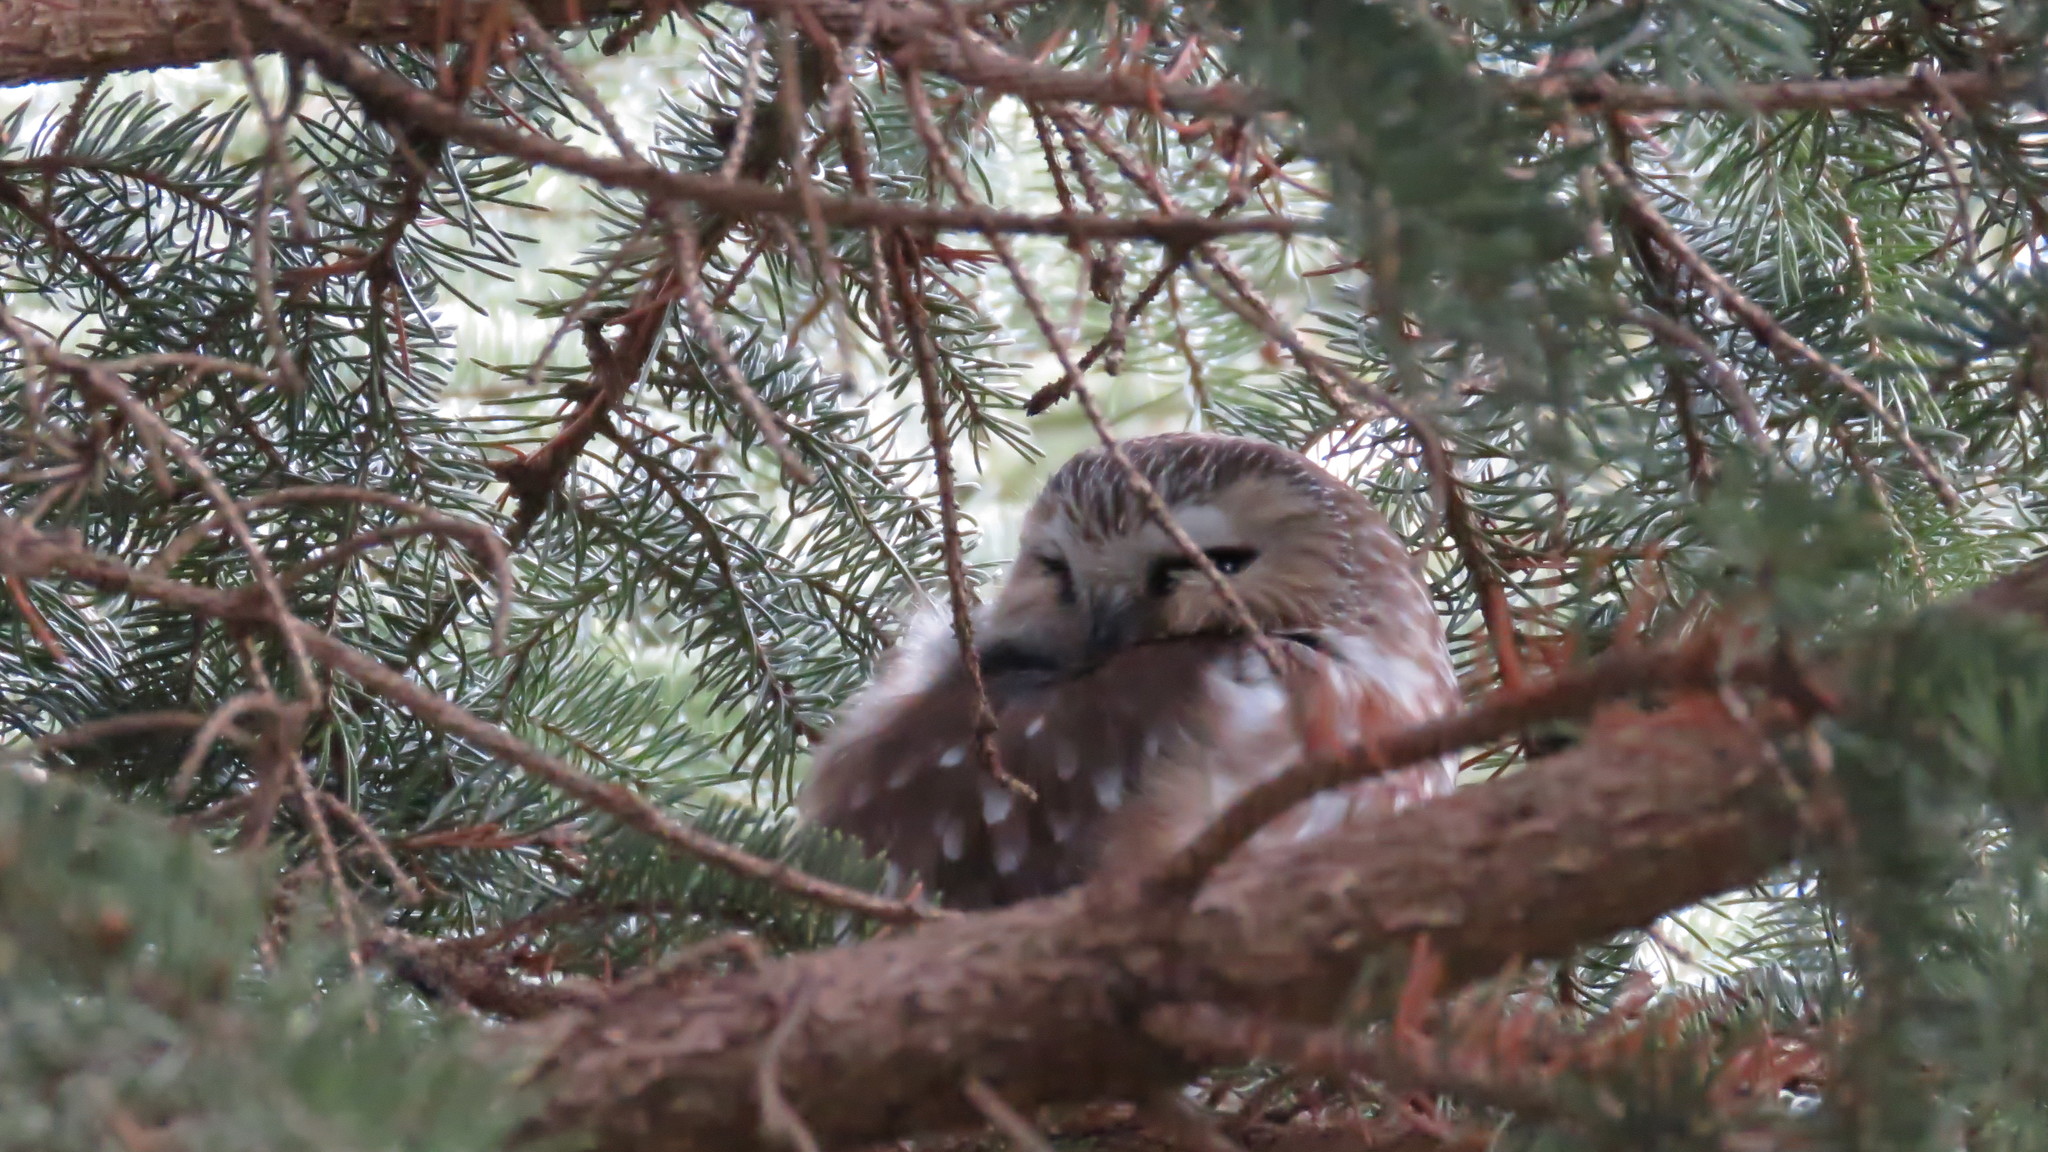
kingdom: Animalia
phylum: Chordata
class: Aves
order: Strigiformes
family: Strigidae
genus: Aegolius
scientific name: Aegolius acadicus
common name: Northern saw-whet owl
